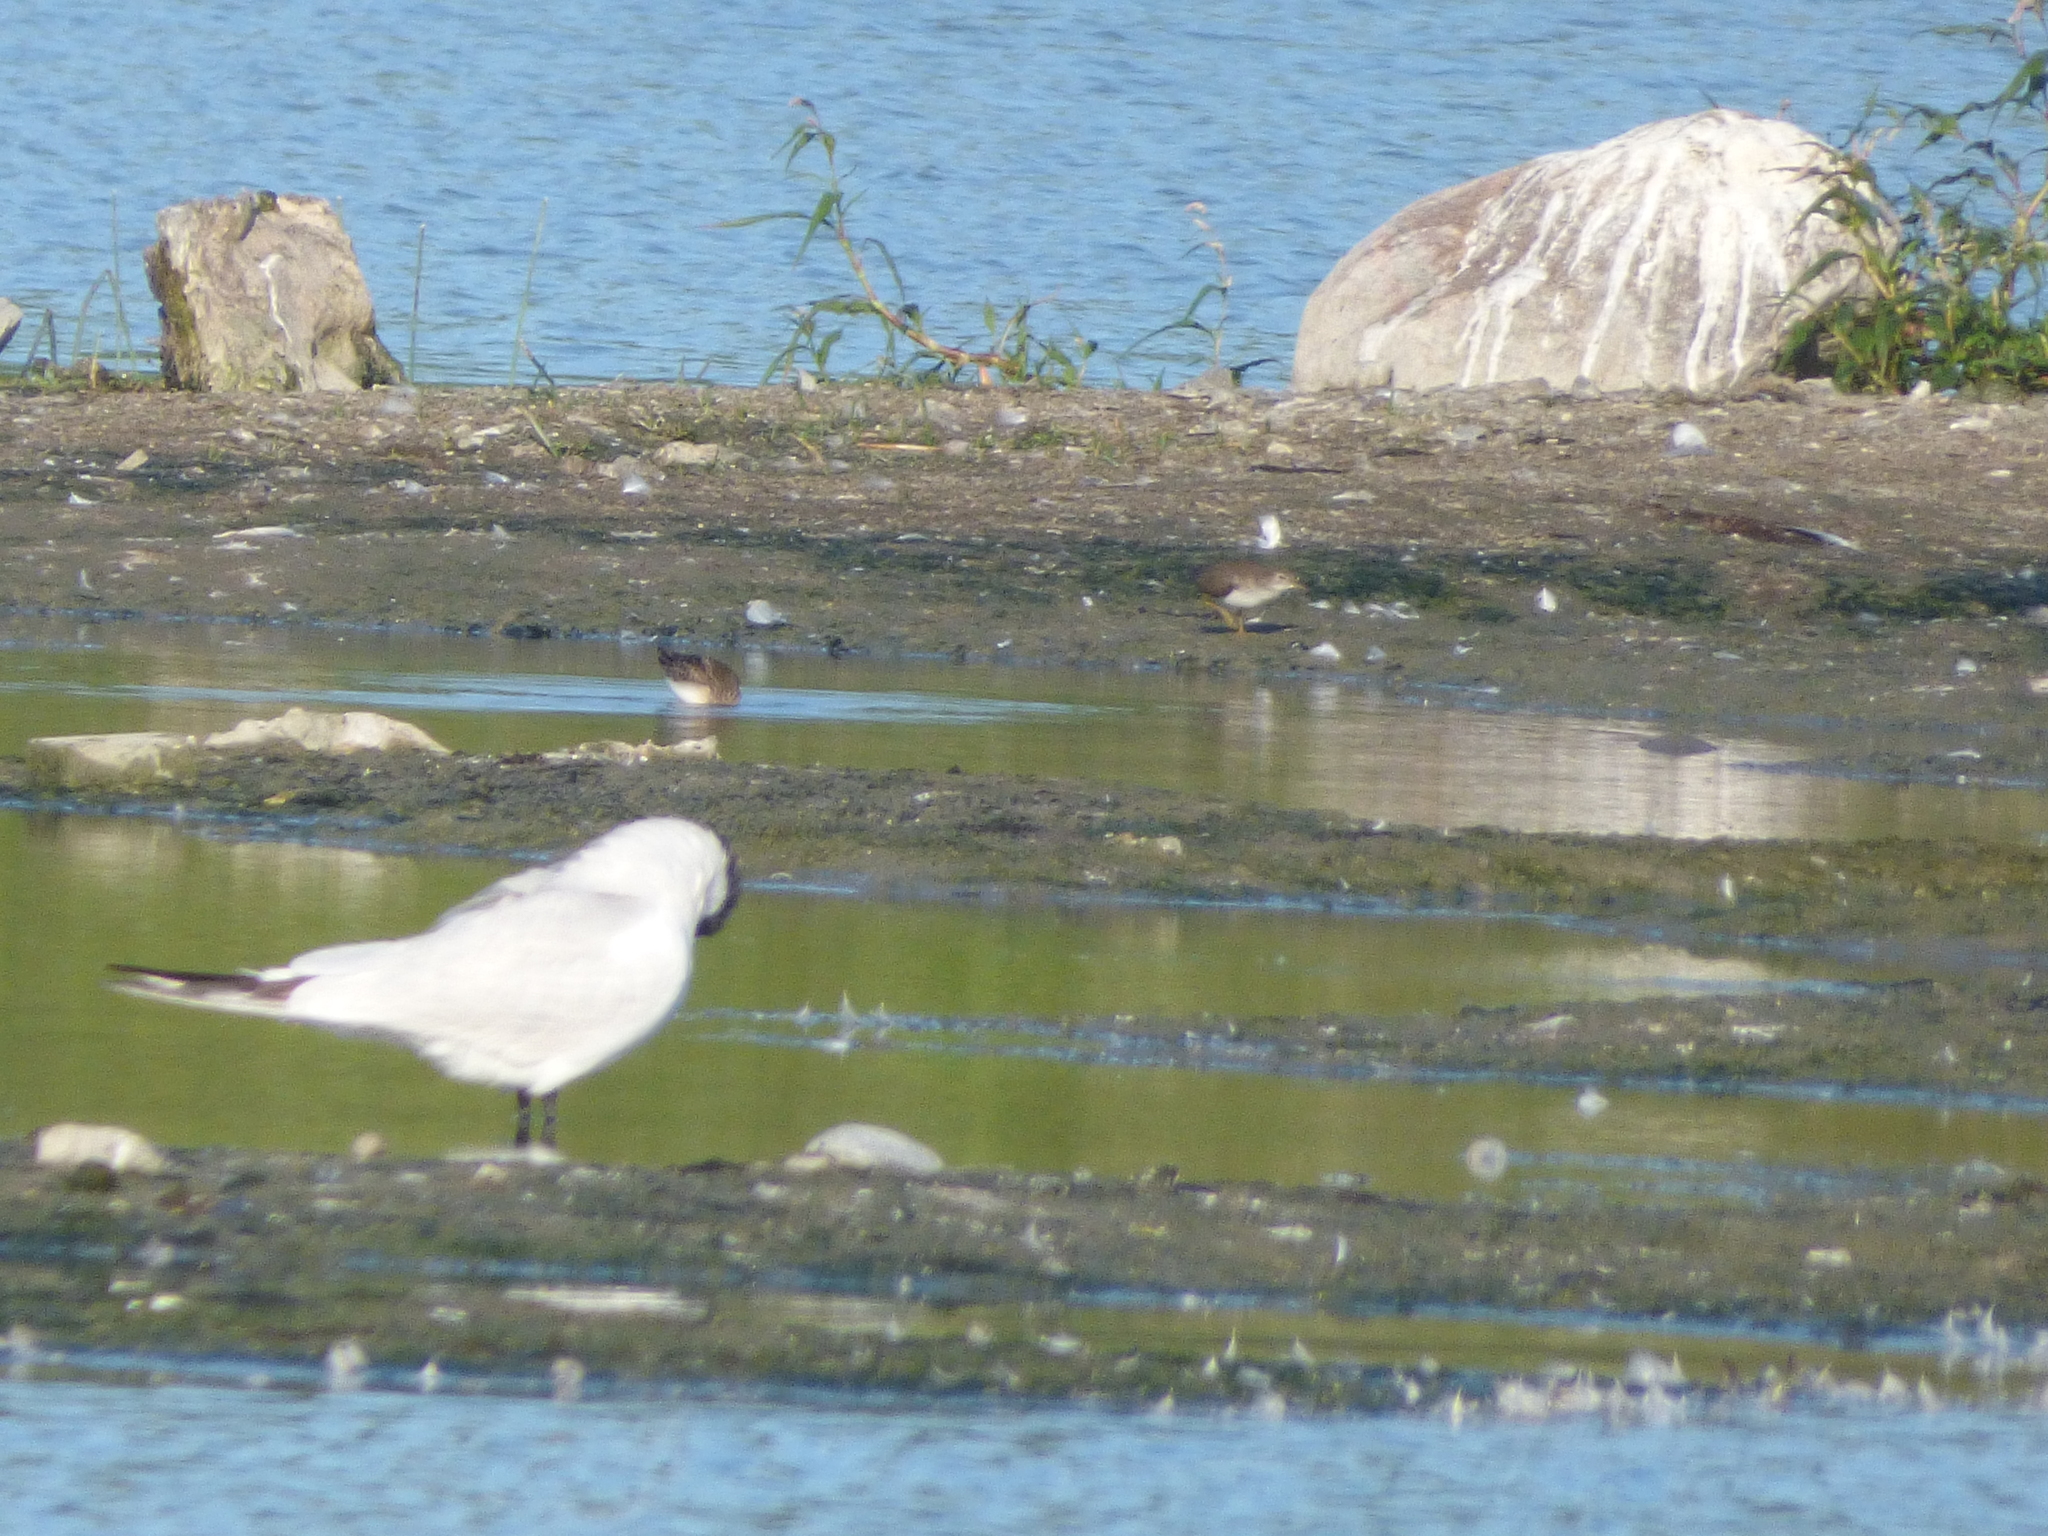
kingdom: Animalia
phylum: Chordata
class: Aves
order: Charadriiformes
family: Scolopacidae
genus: Actitis
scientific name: Actitis macularius
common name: Spotted sandpiper
